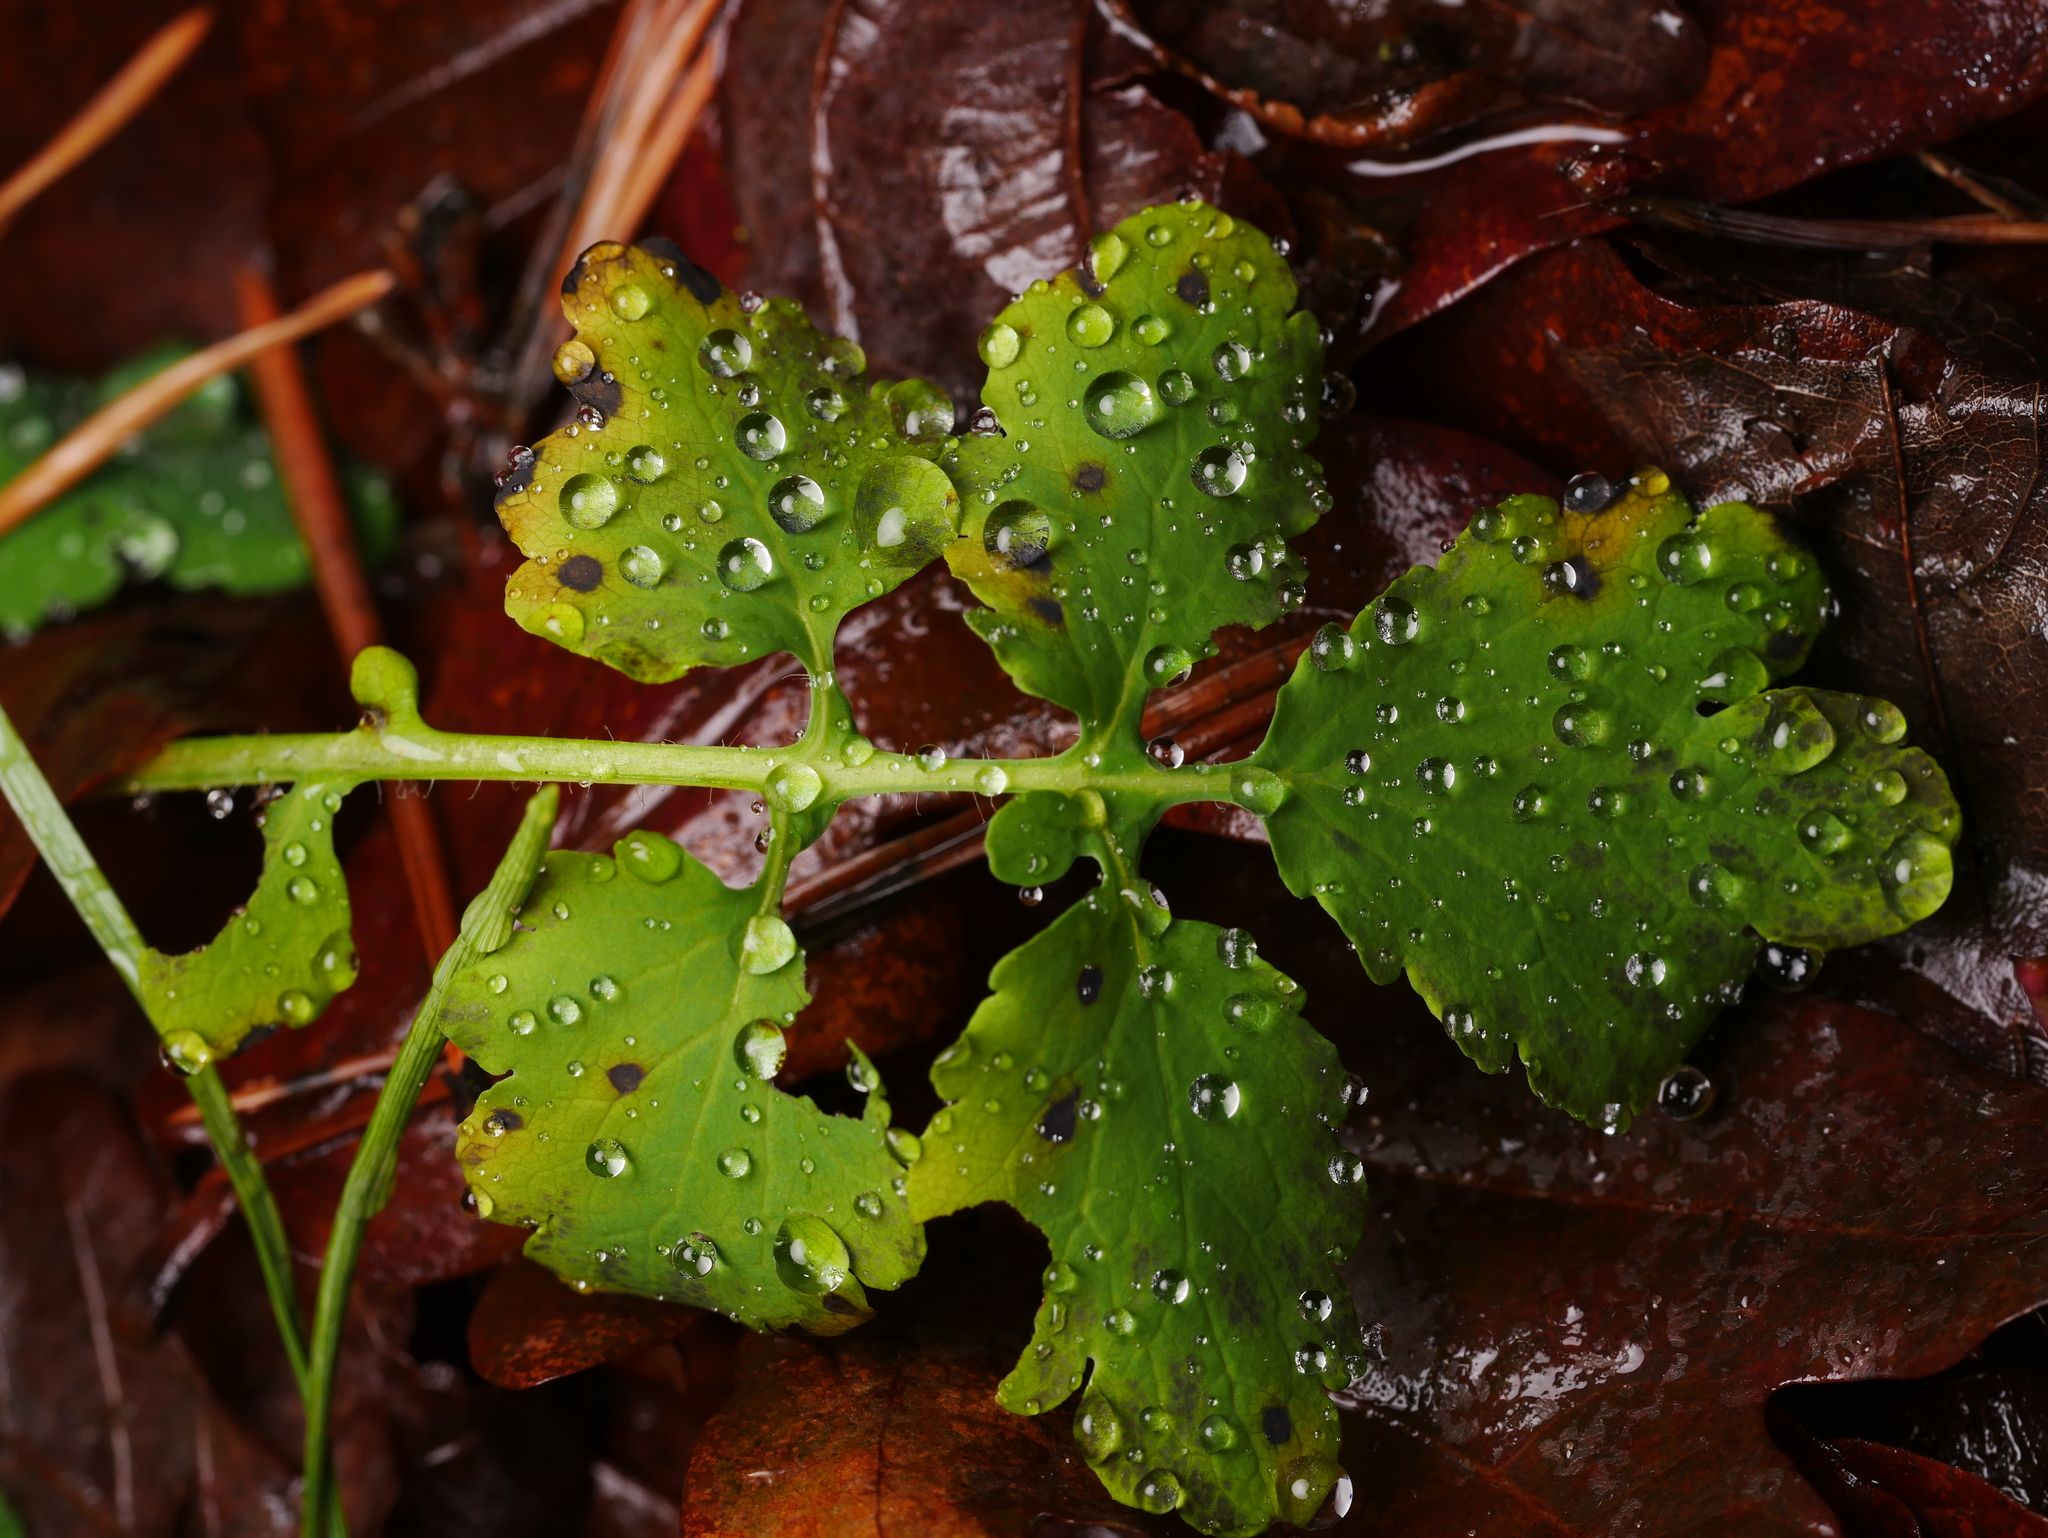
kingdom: Plantae
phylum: Tracheophyta
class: Magnoliopsida
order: Ranunculales
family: Papaveraceae
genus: Chelidonium
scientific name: Chelidonium majus
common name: Greater celandine
